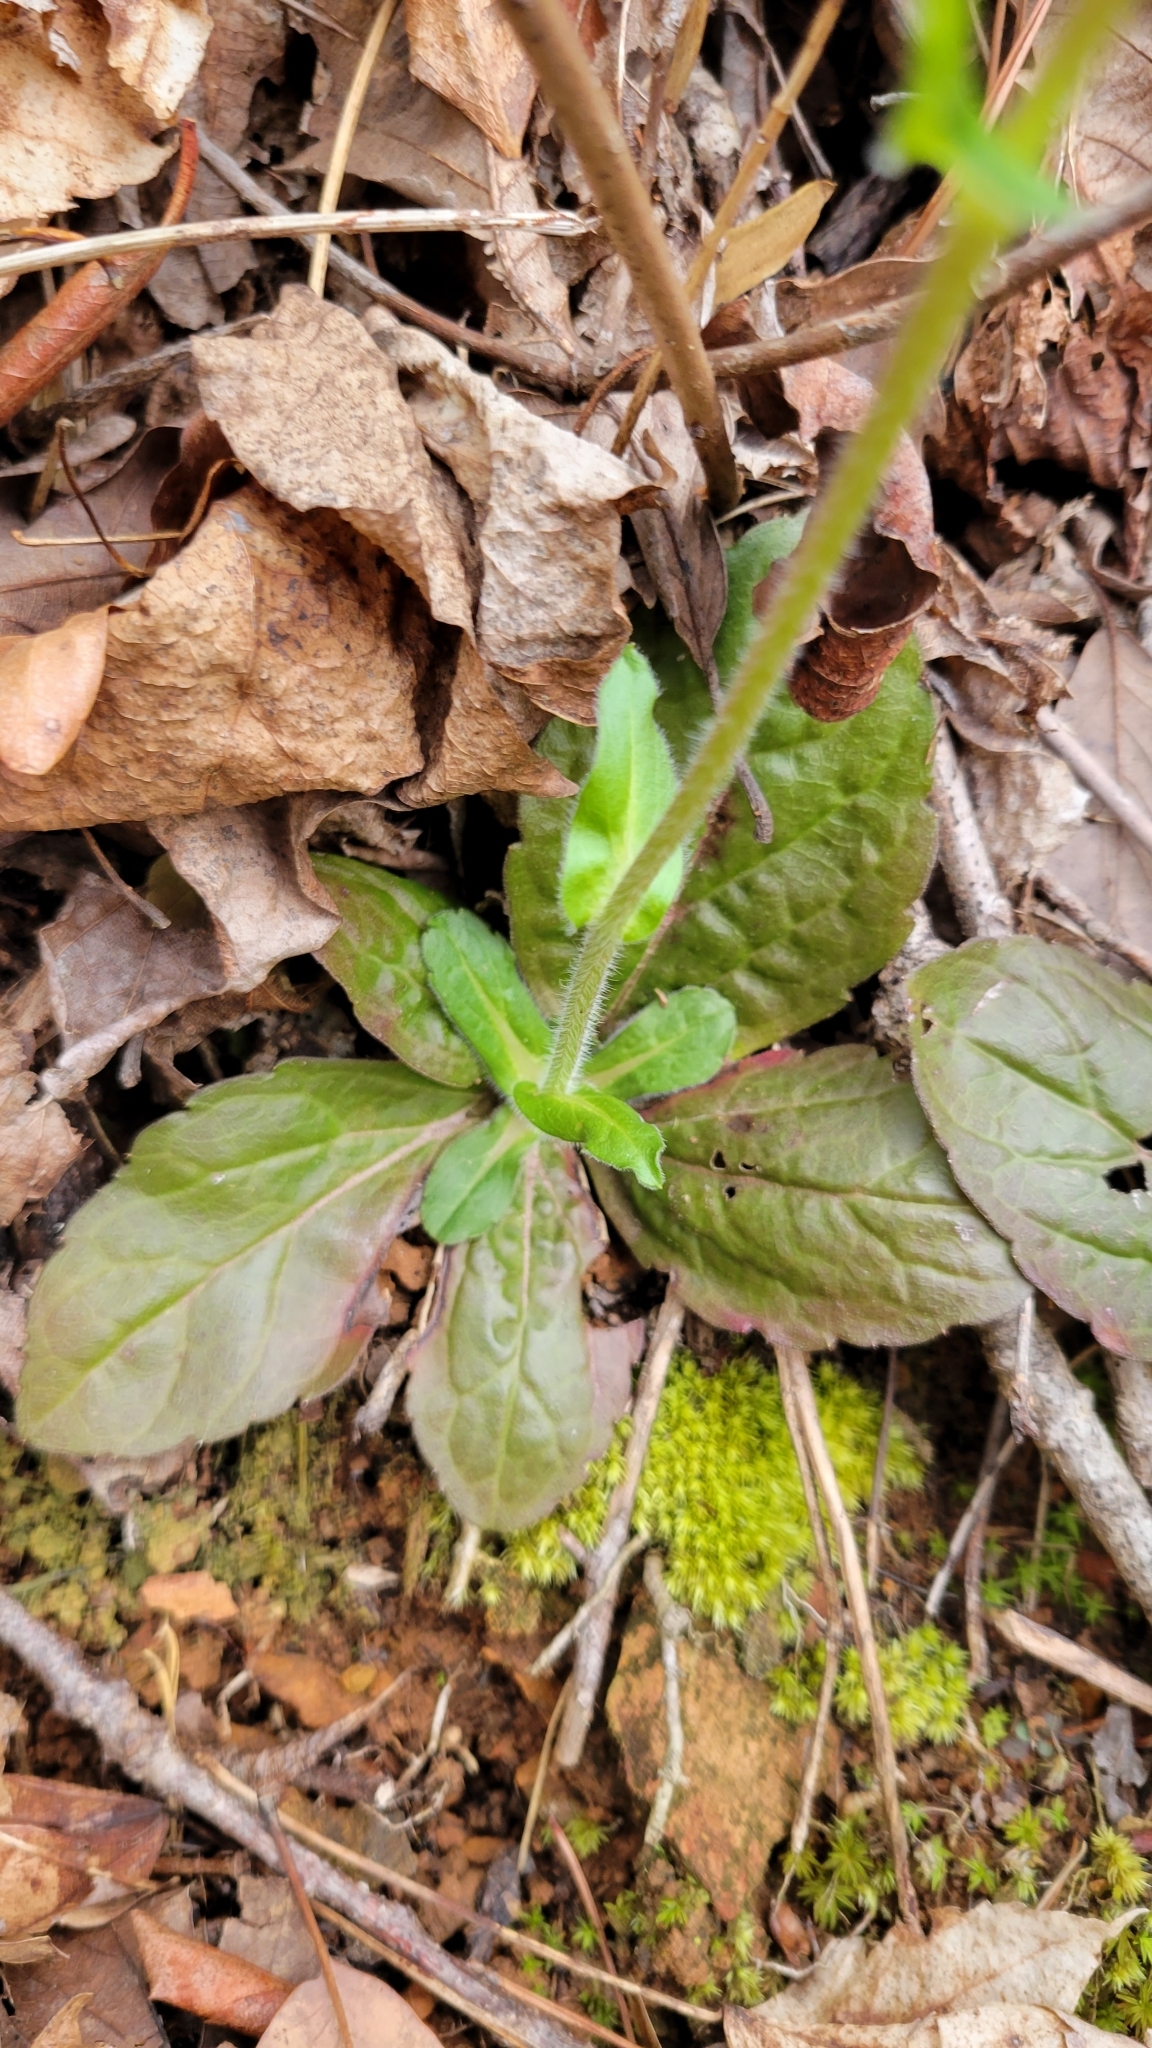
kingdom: Plantae
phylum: Tracheophyta
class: Magnoliopsida
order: Asterales
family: Asteraceae
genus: Erigeron
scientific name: Erigeron pulchellus
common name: Hairy fleabane
